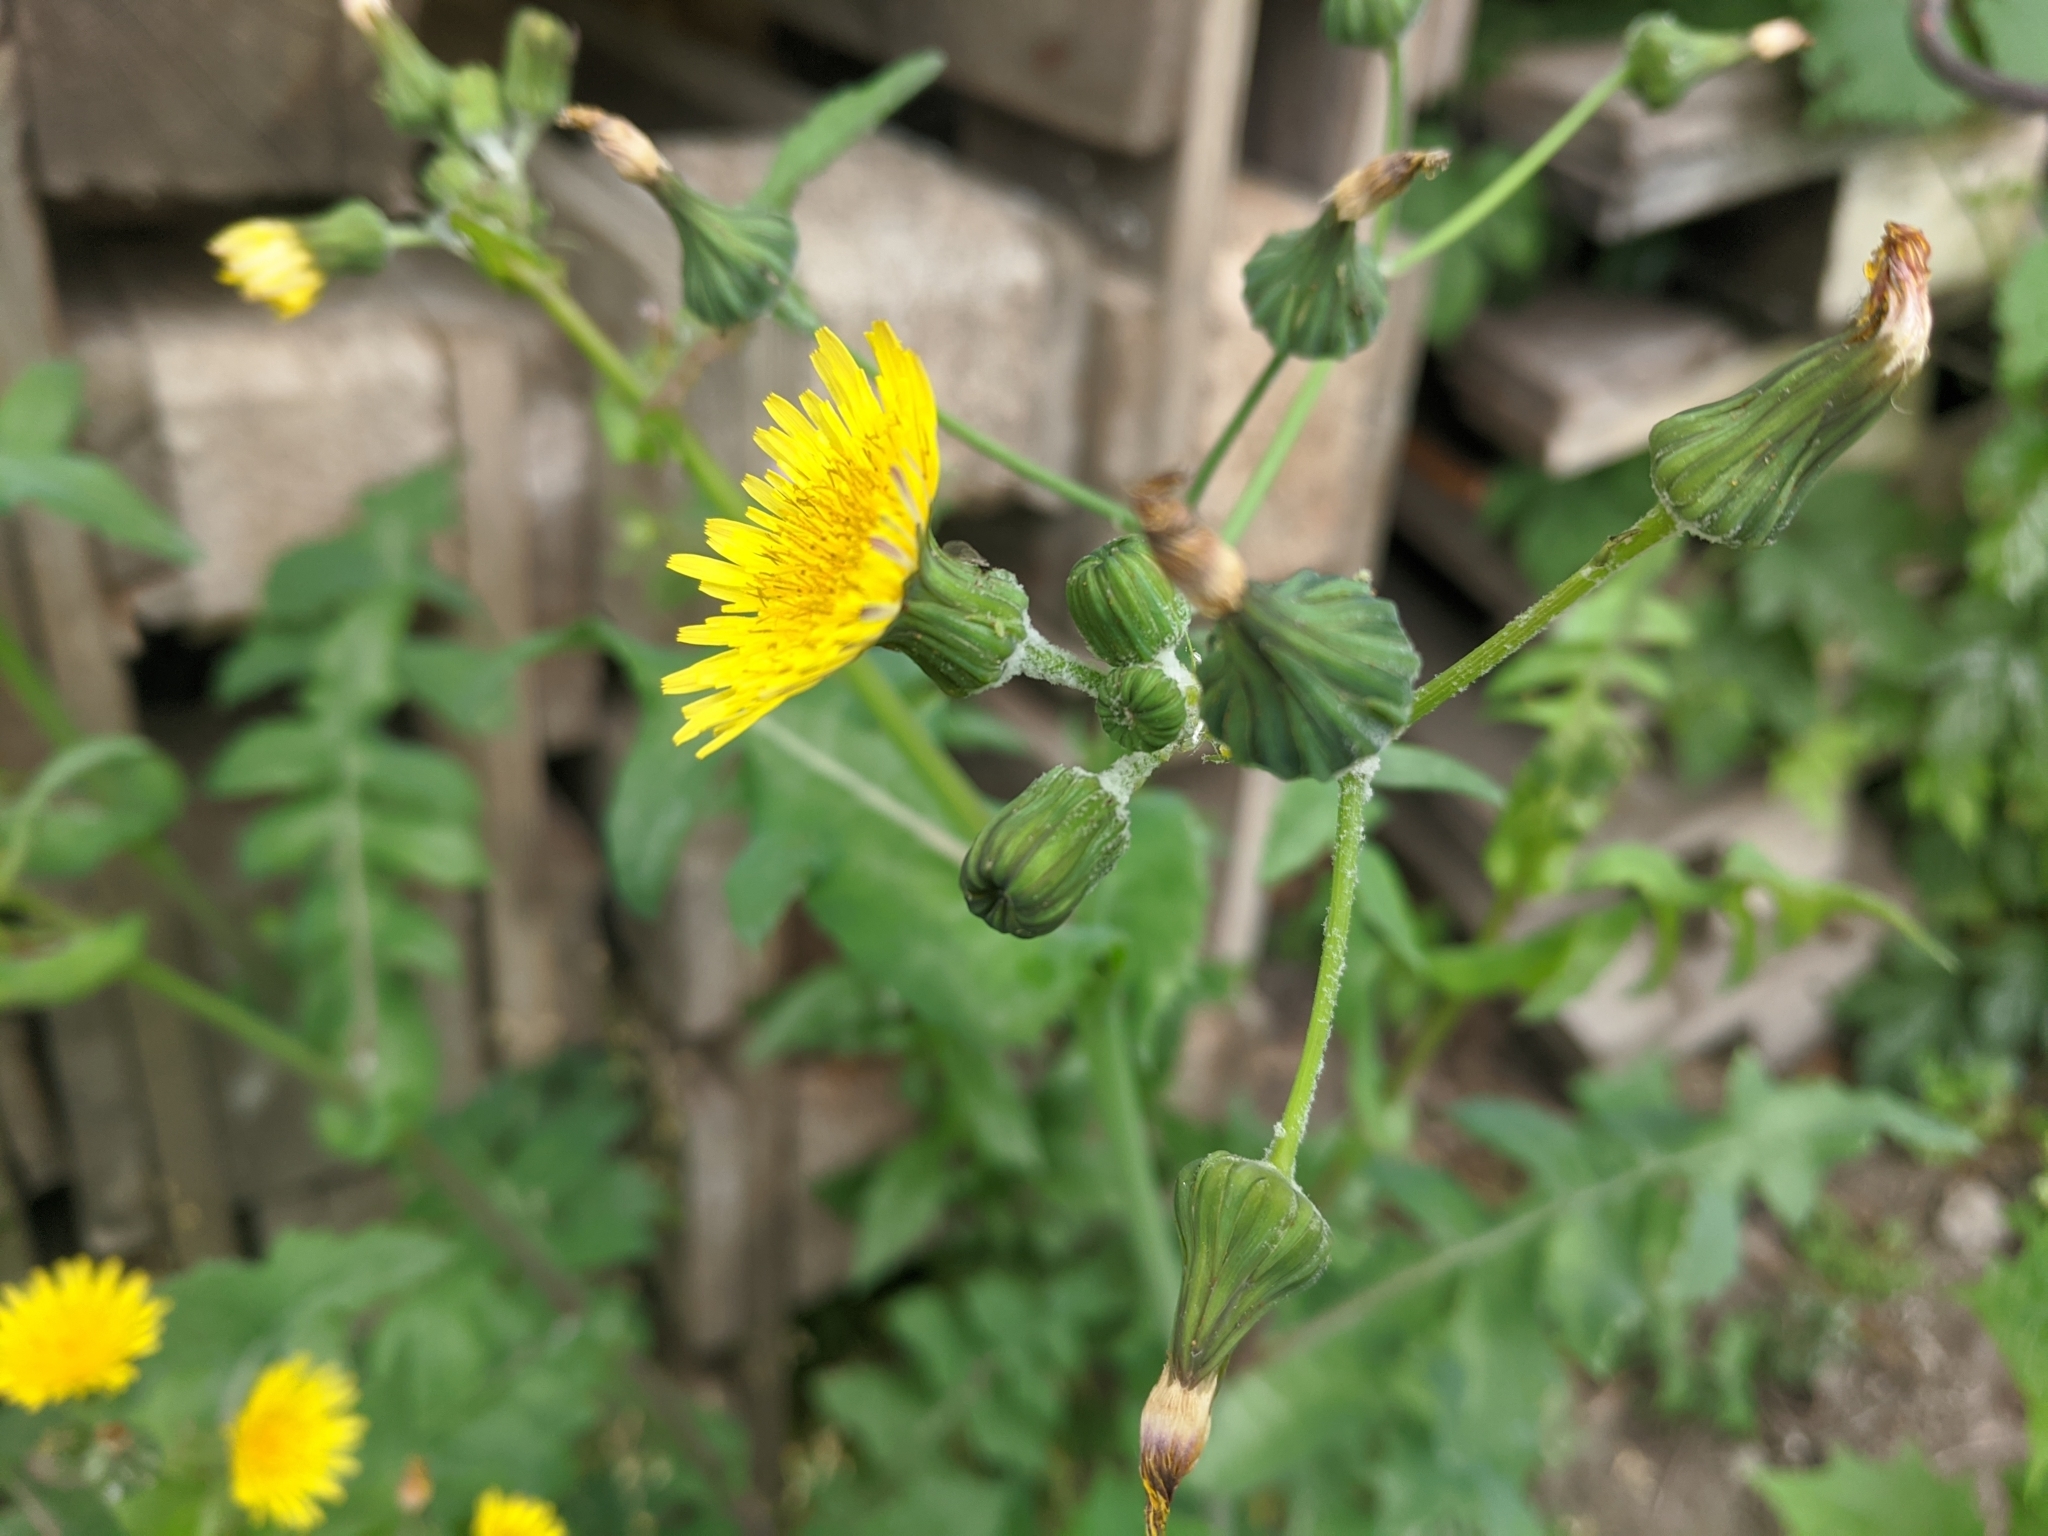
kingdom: Plantae
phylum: Tracheophyta
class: Magnoliopsida
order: Asterales
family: Asteraceae
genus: Sonchus
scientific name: Sonchus oleraceus
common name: Common sowthistle
